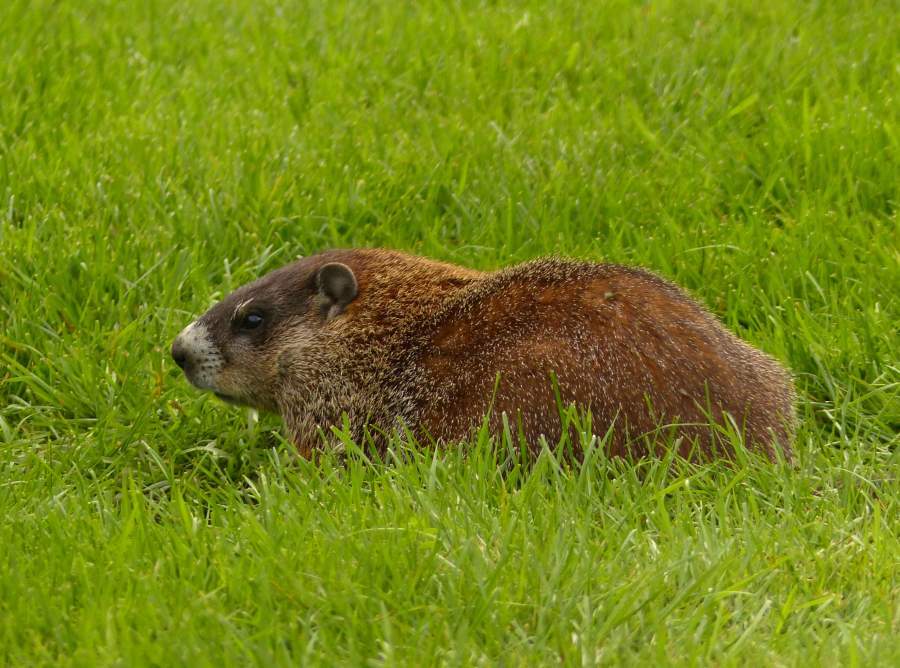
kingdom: Animalia
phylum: Chordata
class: Mammalia
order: Rodentia
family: Sciuridae
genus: Marmota
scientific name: Marmota monax
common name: Groundhog
